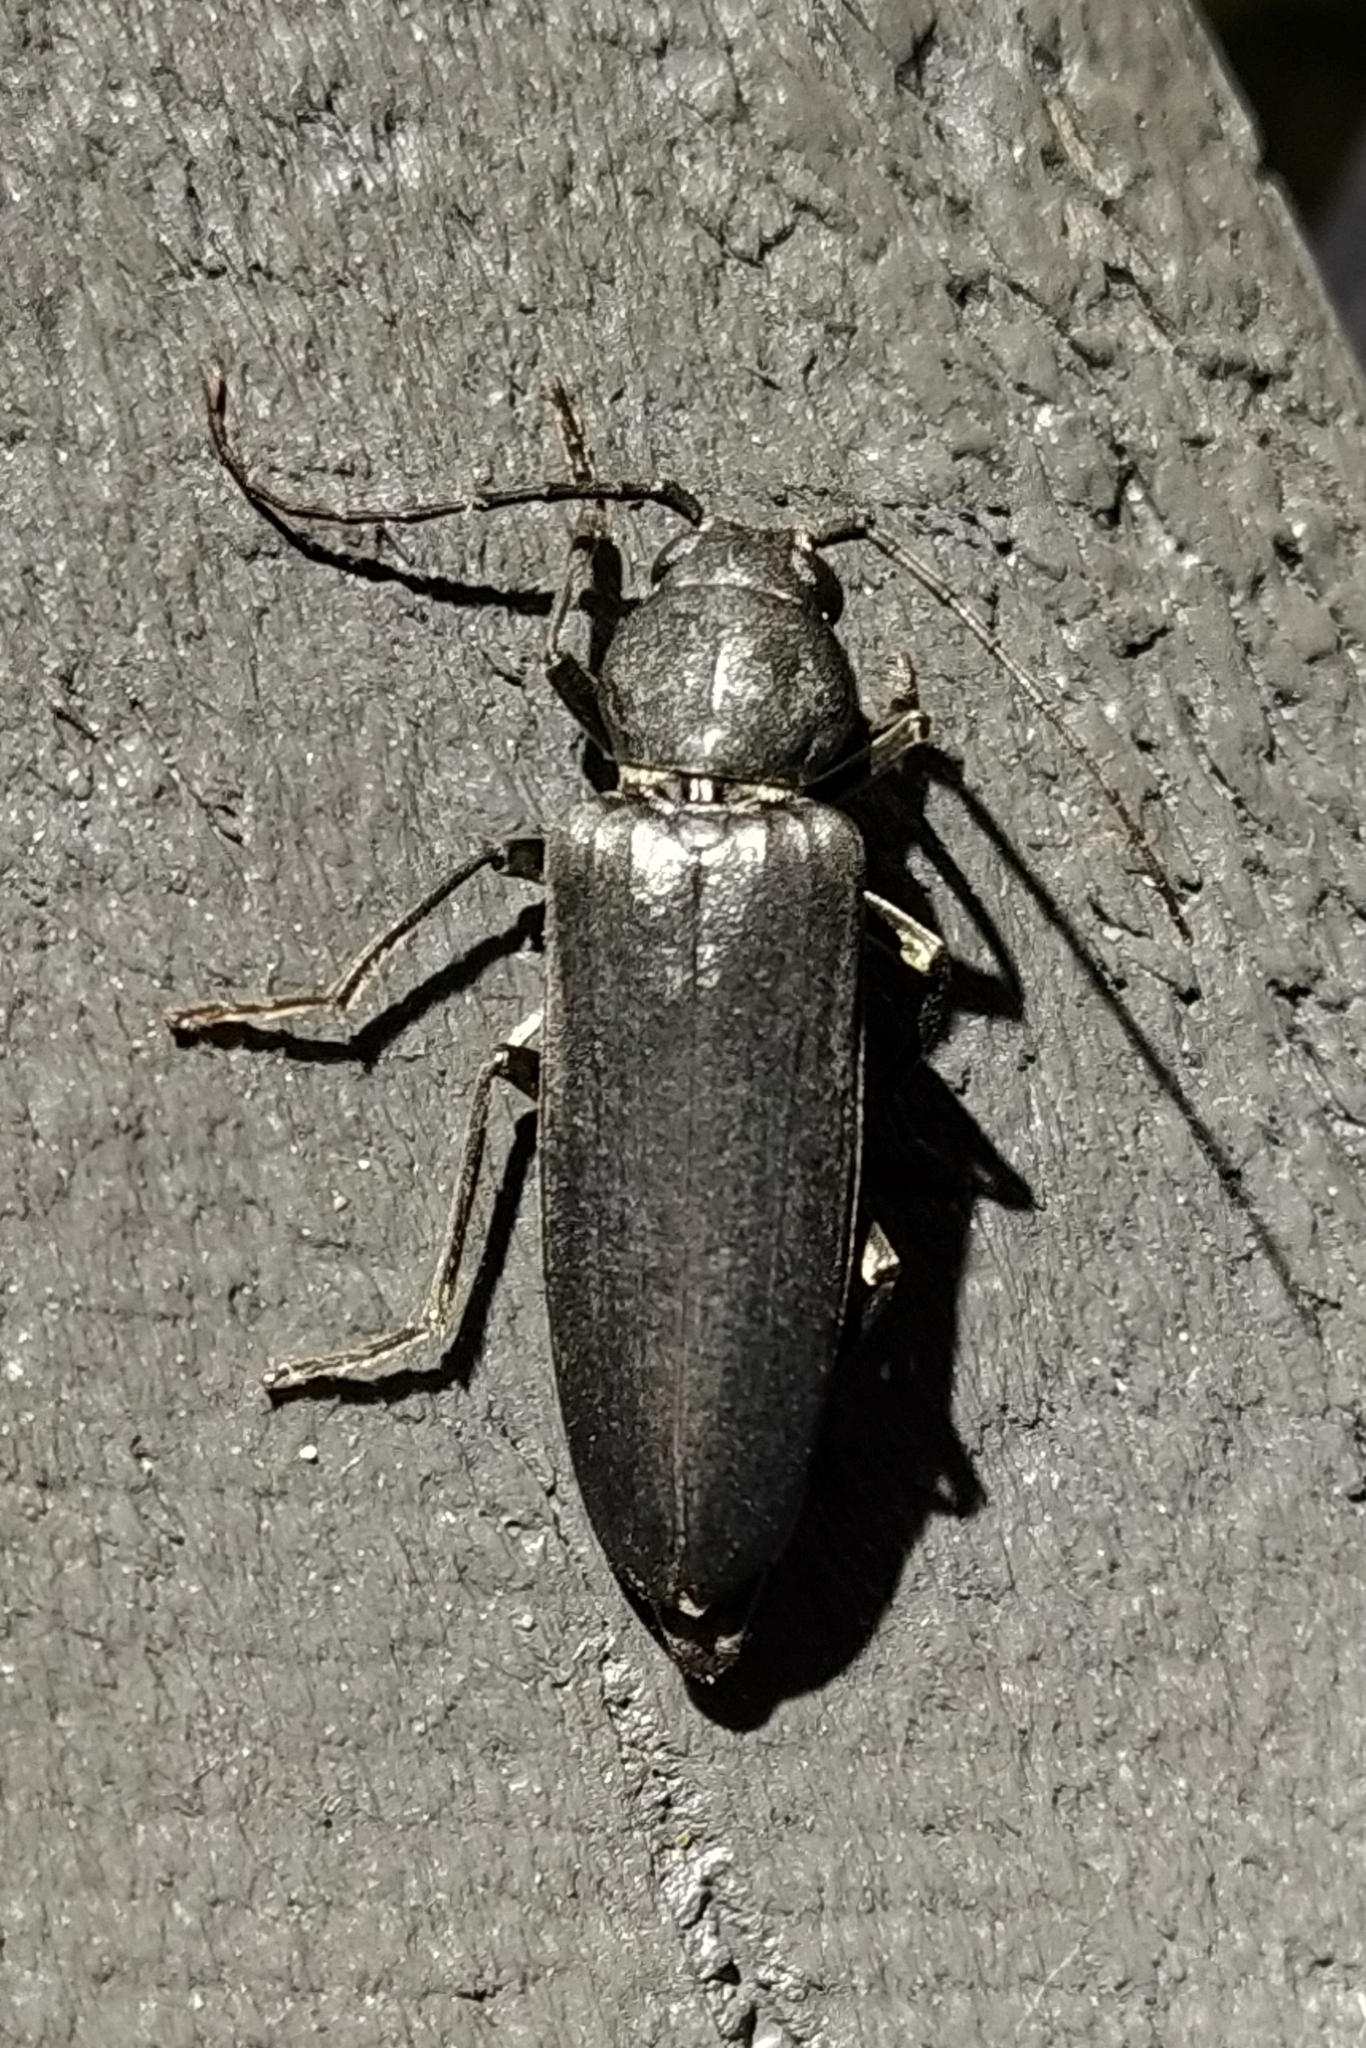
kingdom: Animalia
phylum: Arthropoda
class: Insecta
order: Coleoptera
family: Cerambycidae
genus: Arhopalus
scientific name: Arhopalus ferus
